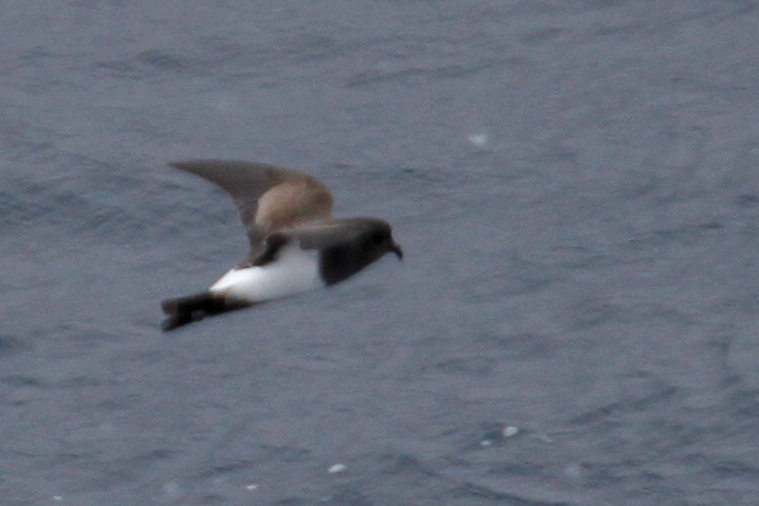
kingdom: Animalia
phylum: Chordata
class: Aves
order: Procellariiformes
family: Hydrobatidae
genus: Fregetta
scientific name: Fregetta tropica
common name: Black-bellied storm-petrel
